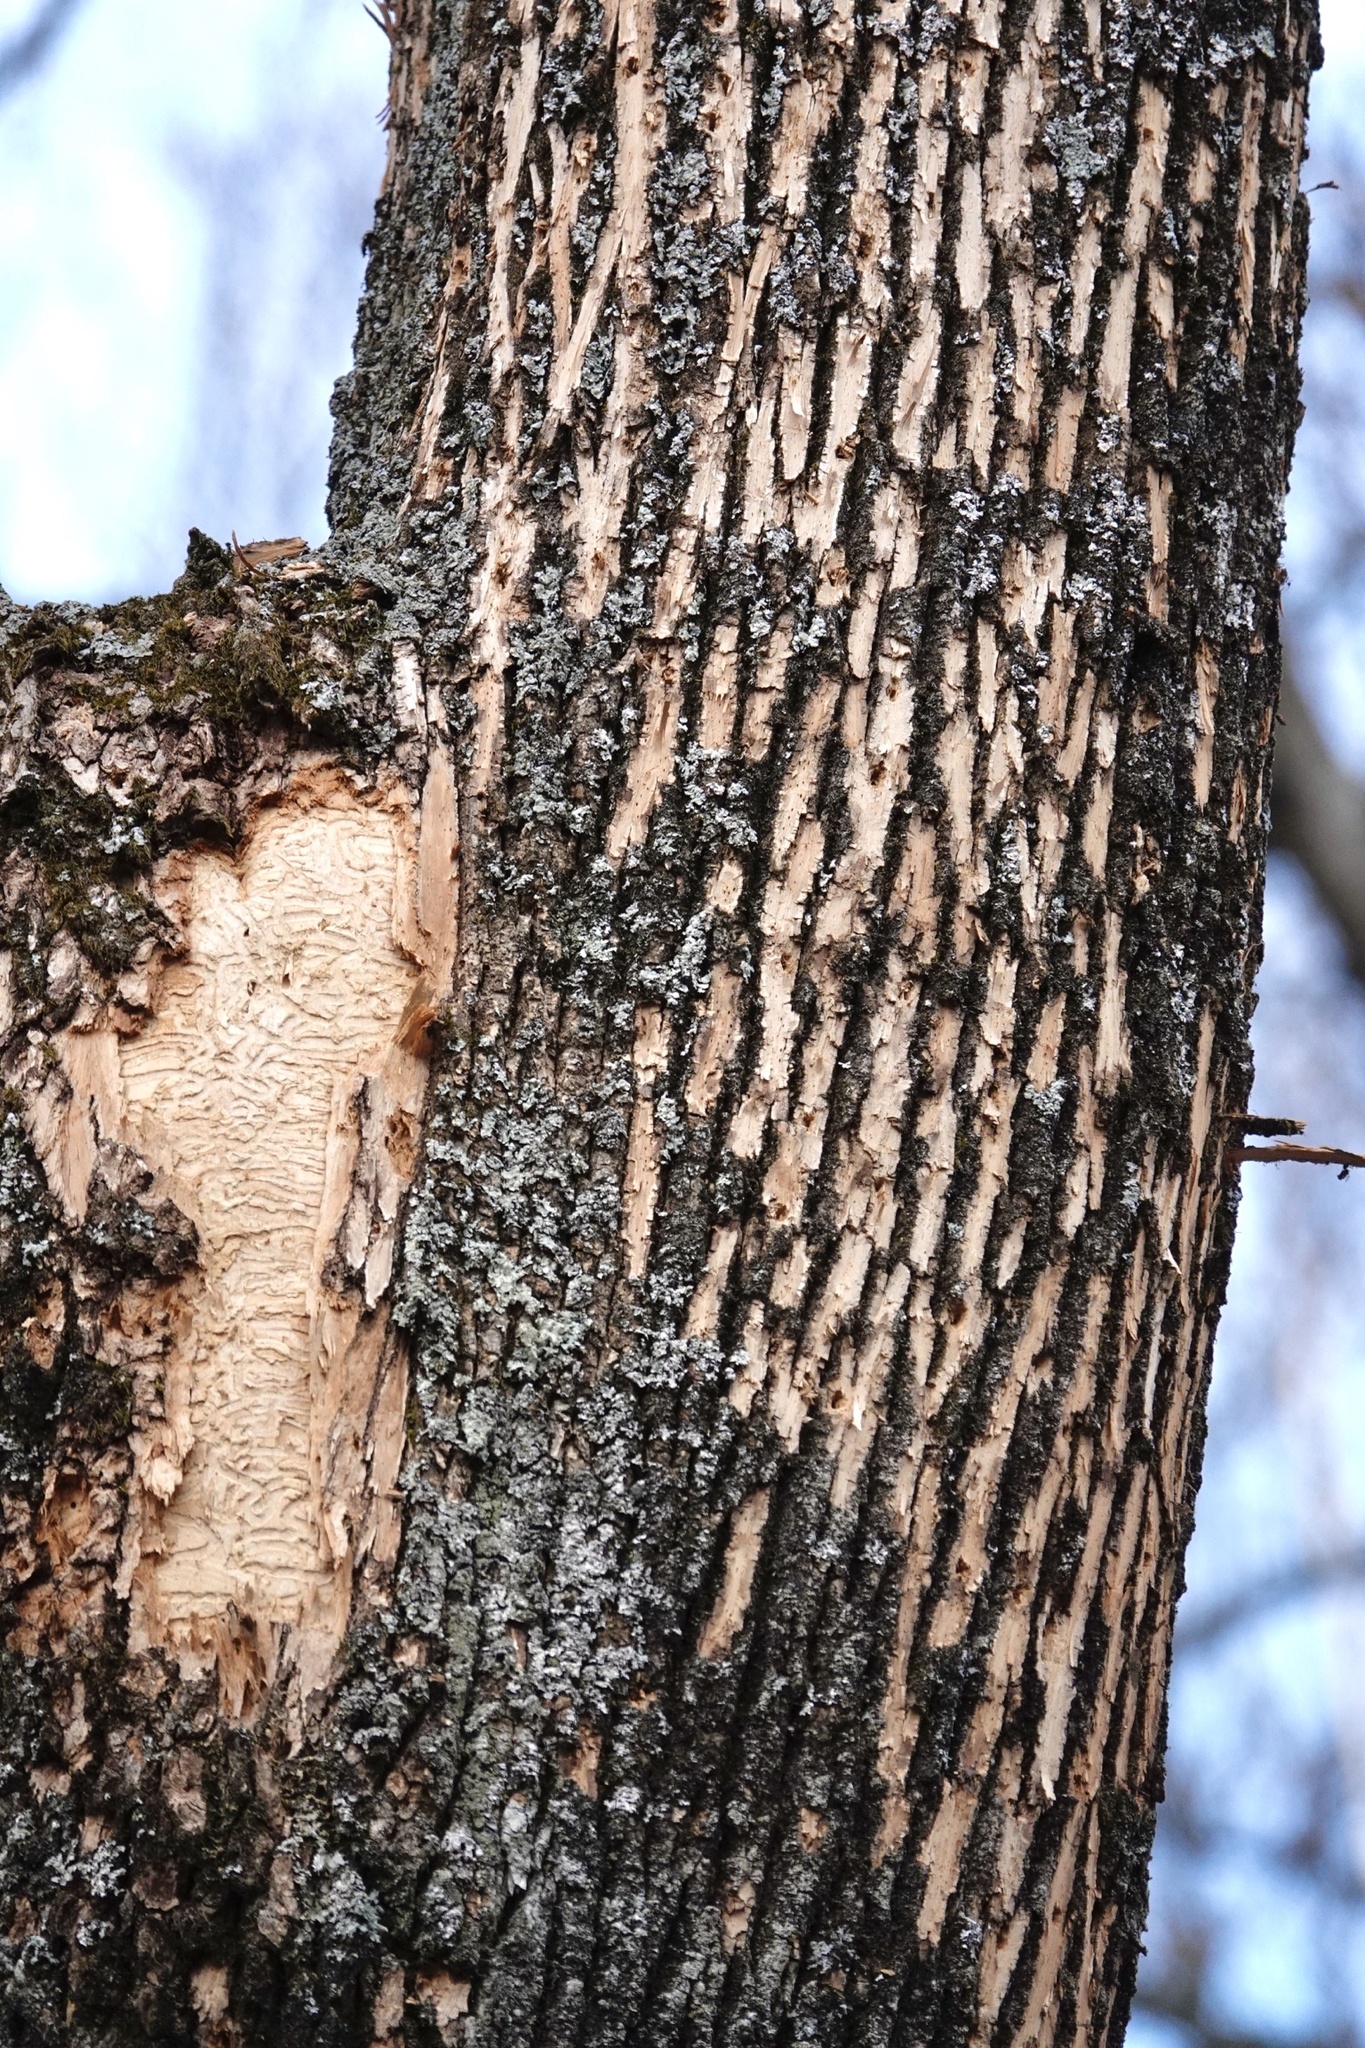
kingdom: Animalia
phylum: Arthropoda
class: Insecta
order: Coleoptera
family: Buprestidae
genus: Agrilus
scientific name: Agrilus planipennis
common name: Emerald ash borer
